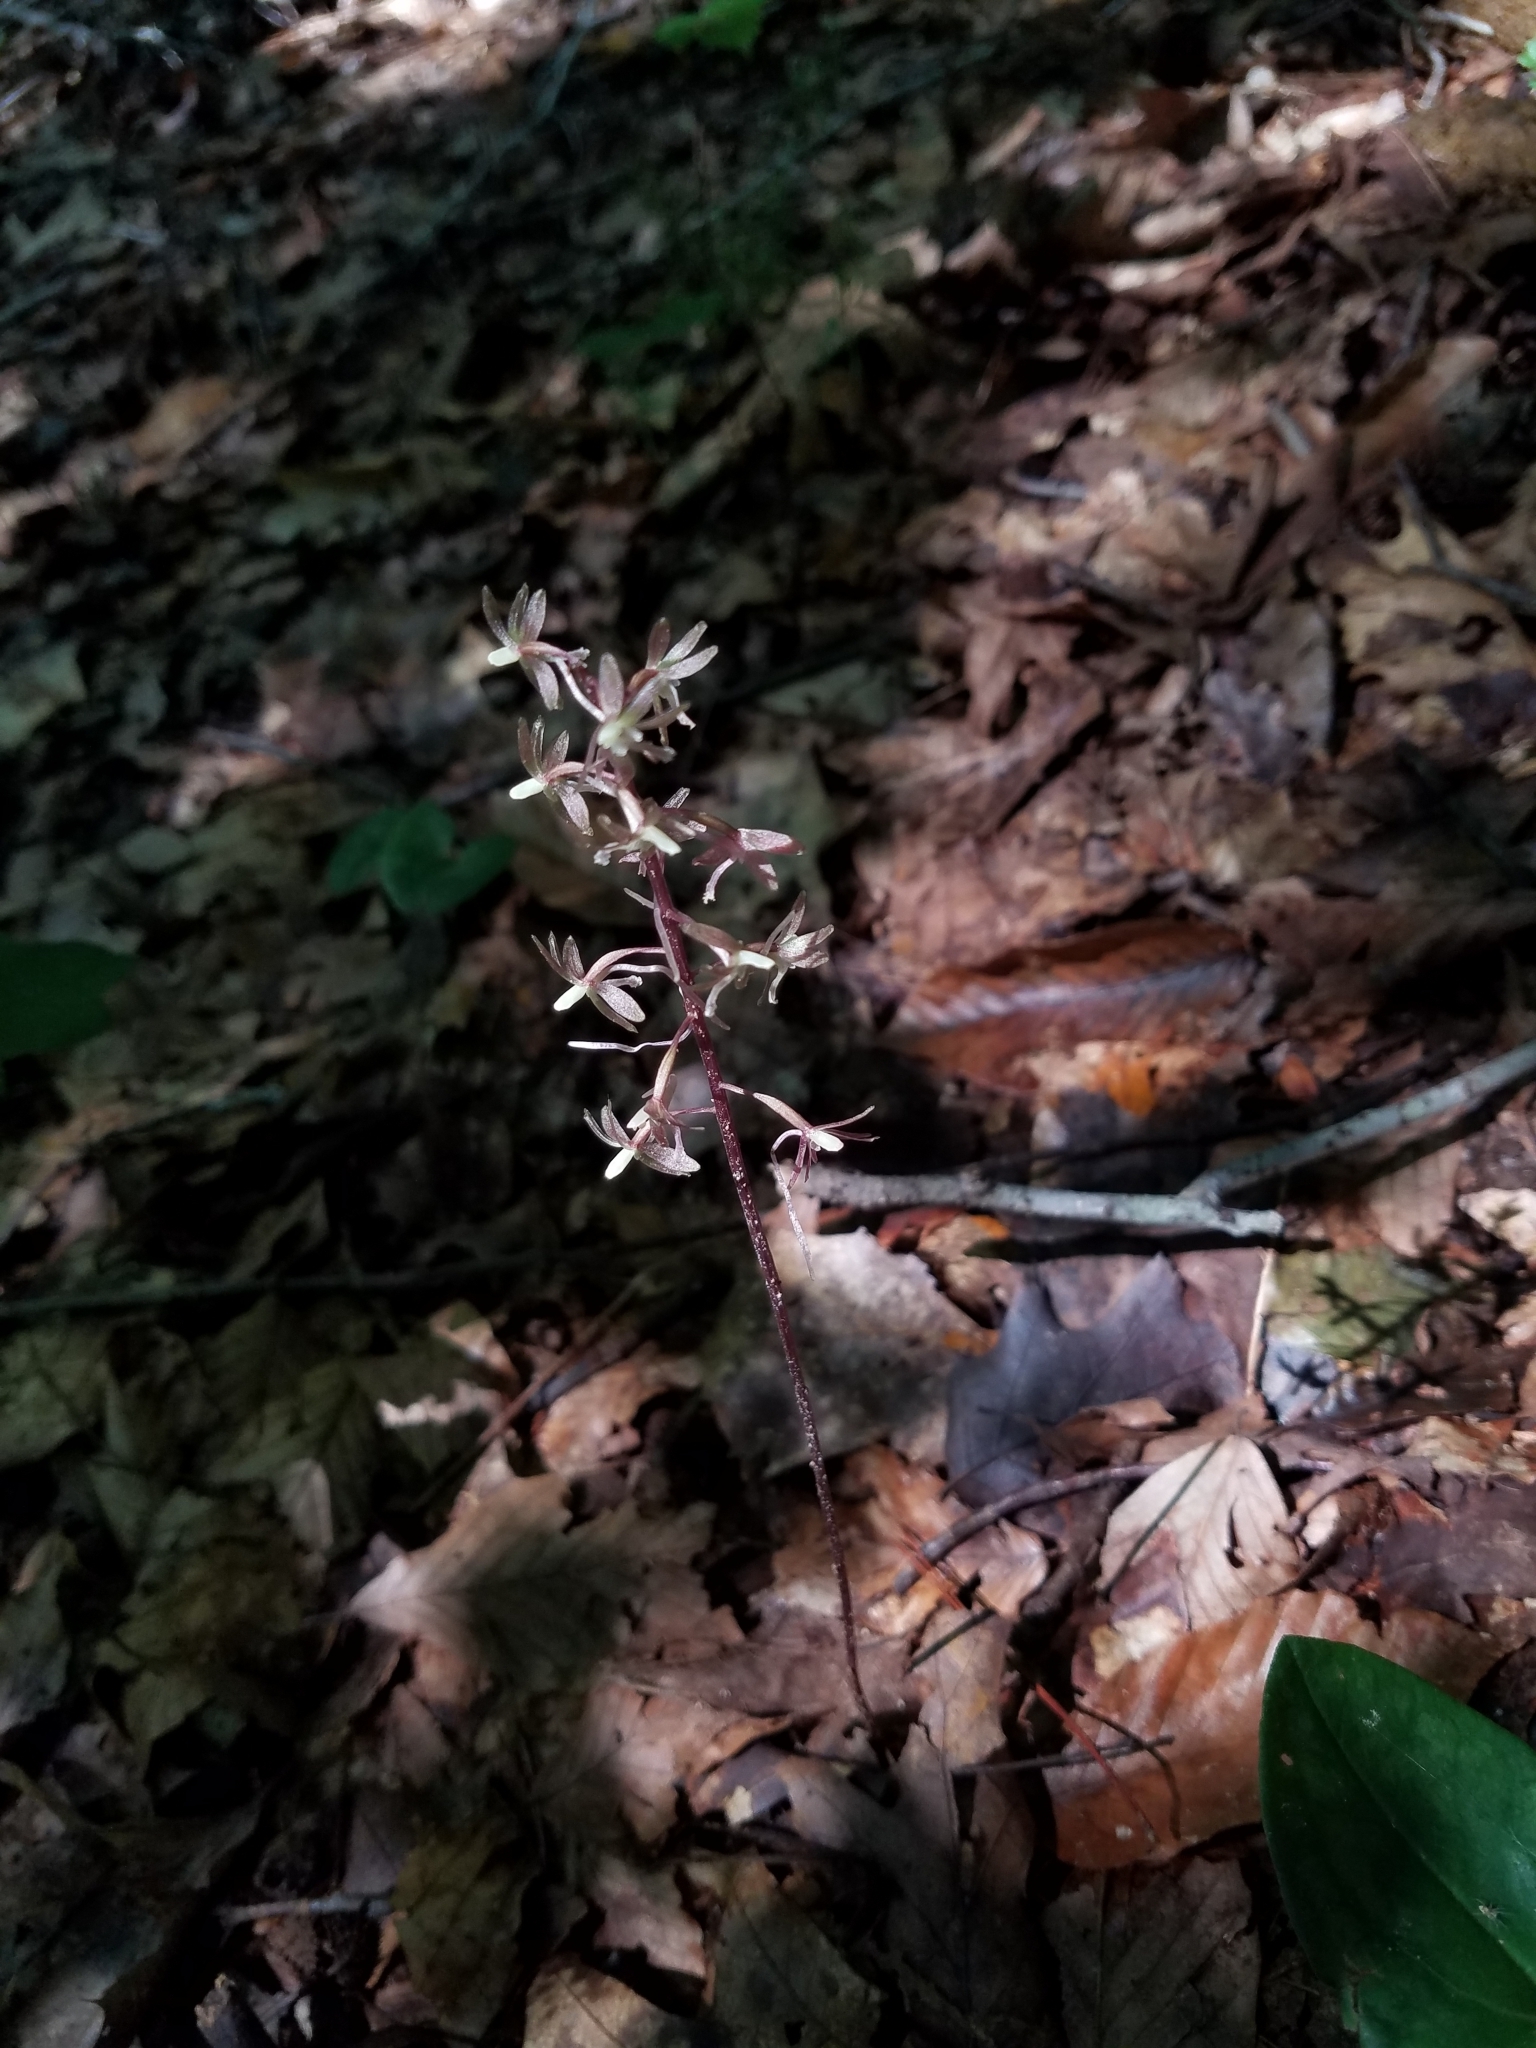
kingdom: Plantae
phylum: Tracheophyta
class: Liliopsida
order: Asparagales
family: Orchidaceae
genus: Tipularia
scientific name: Tipularia discolor
